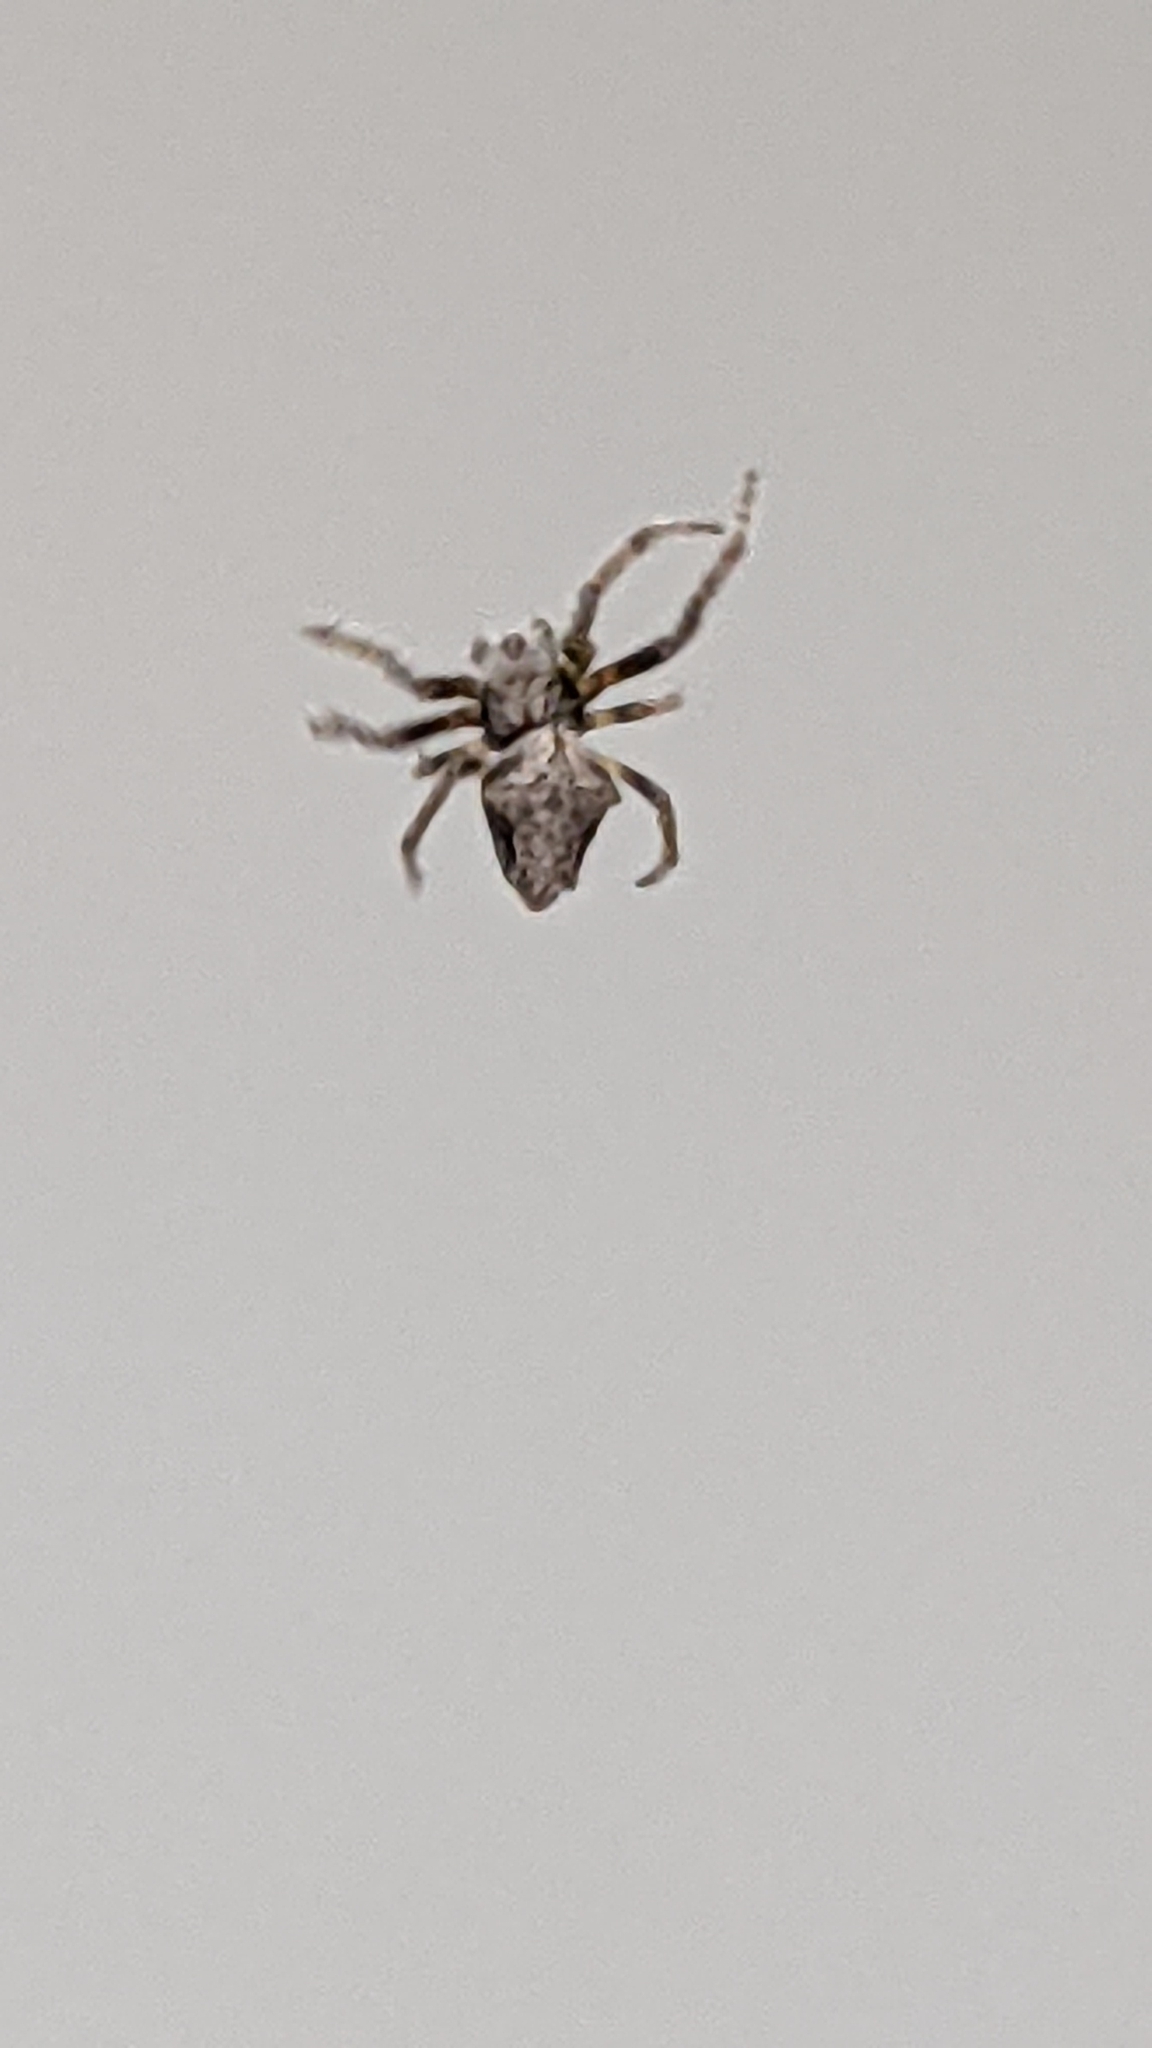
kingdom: Animalia
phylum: Arthropoda
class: Arachnida
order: Araneae
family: Araneidae
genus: Eriophora
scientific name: Eriophora pustulosa
